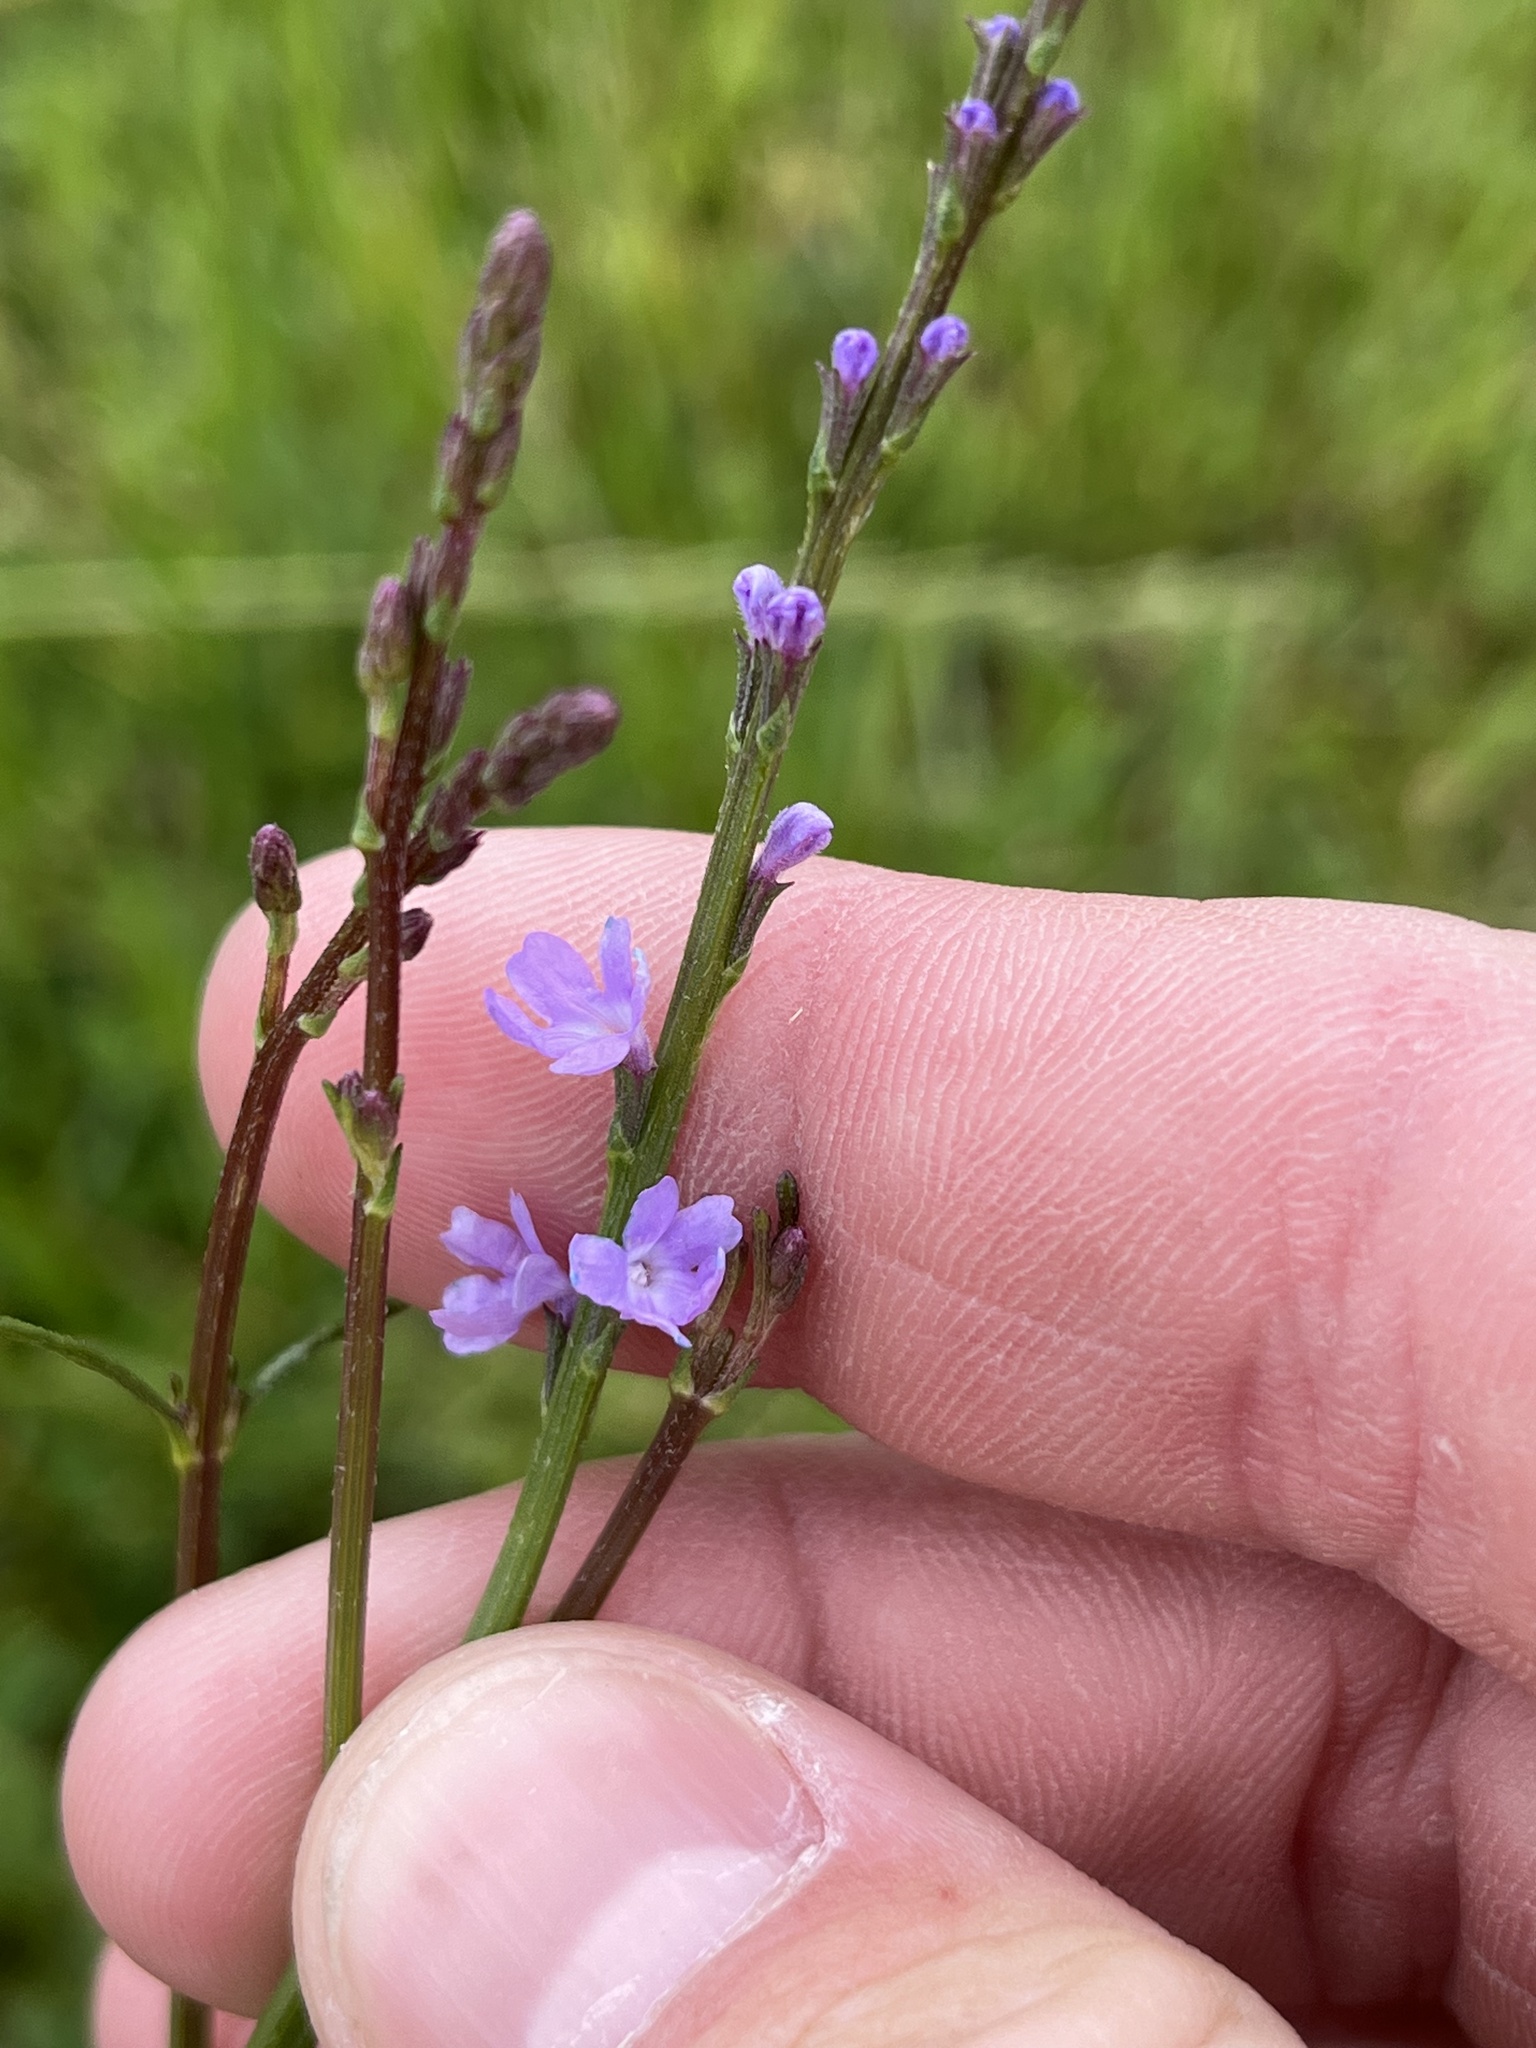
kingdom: Plantae
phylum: Tracheophyta
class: Magnoliopsida
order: Lamiales
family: Verbenaceae
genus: Verbena
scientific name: Verbena halei
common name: Texas vervain
